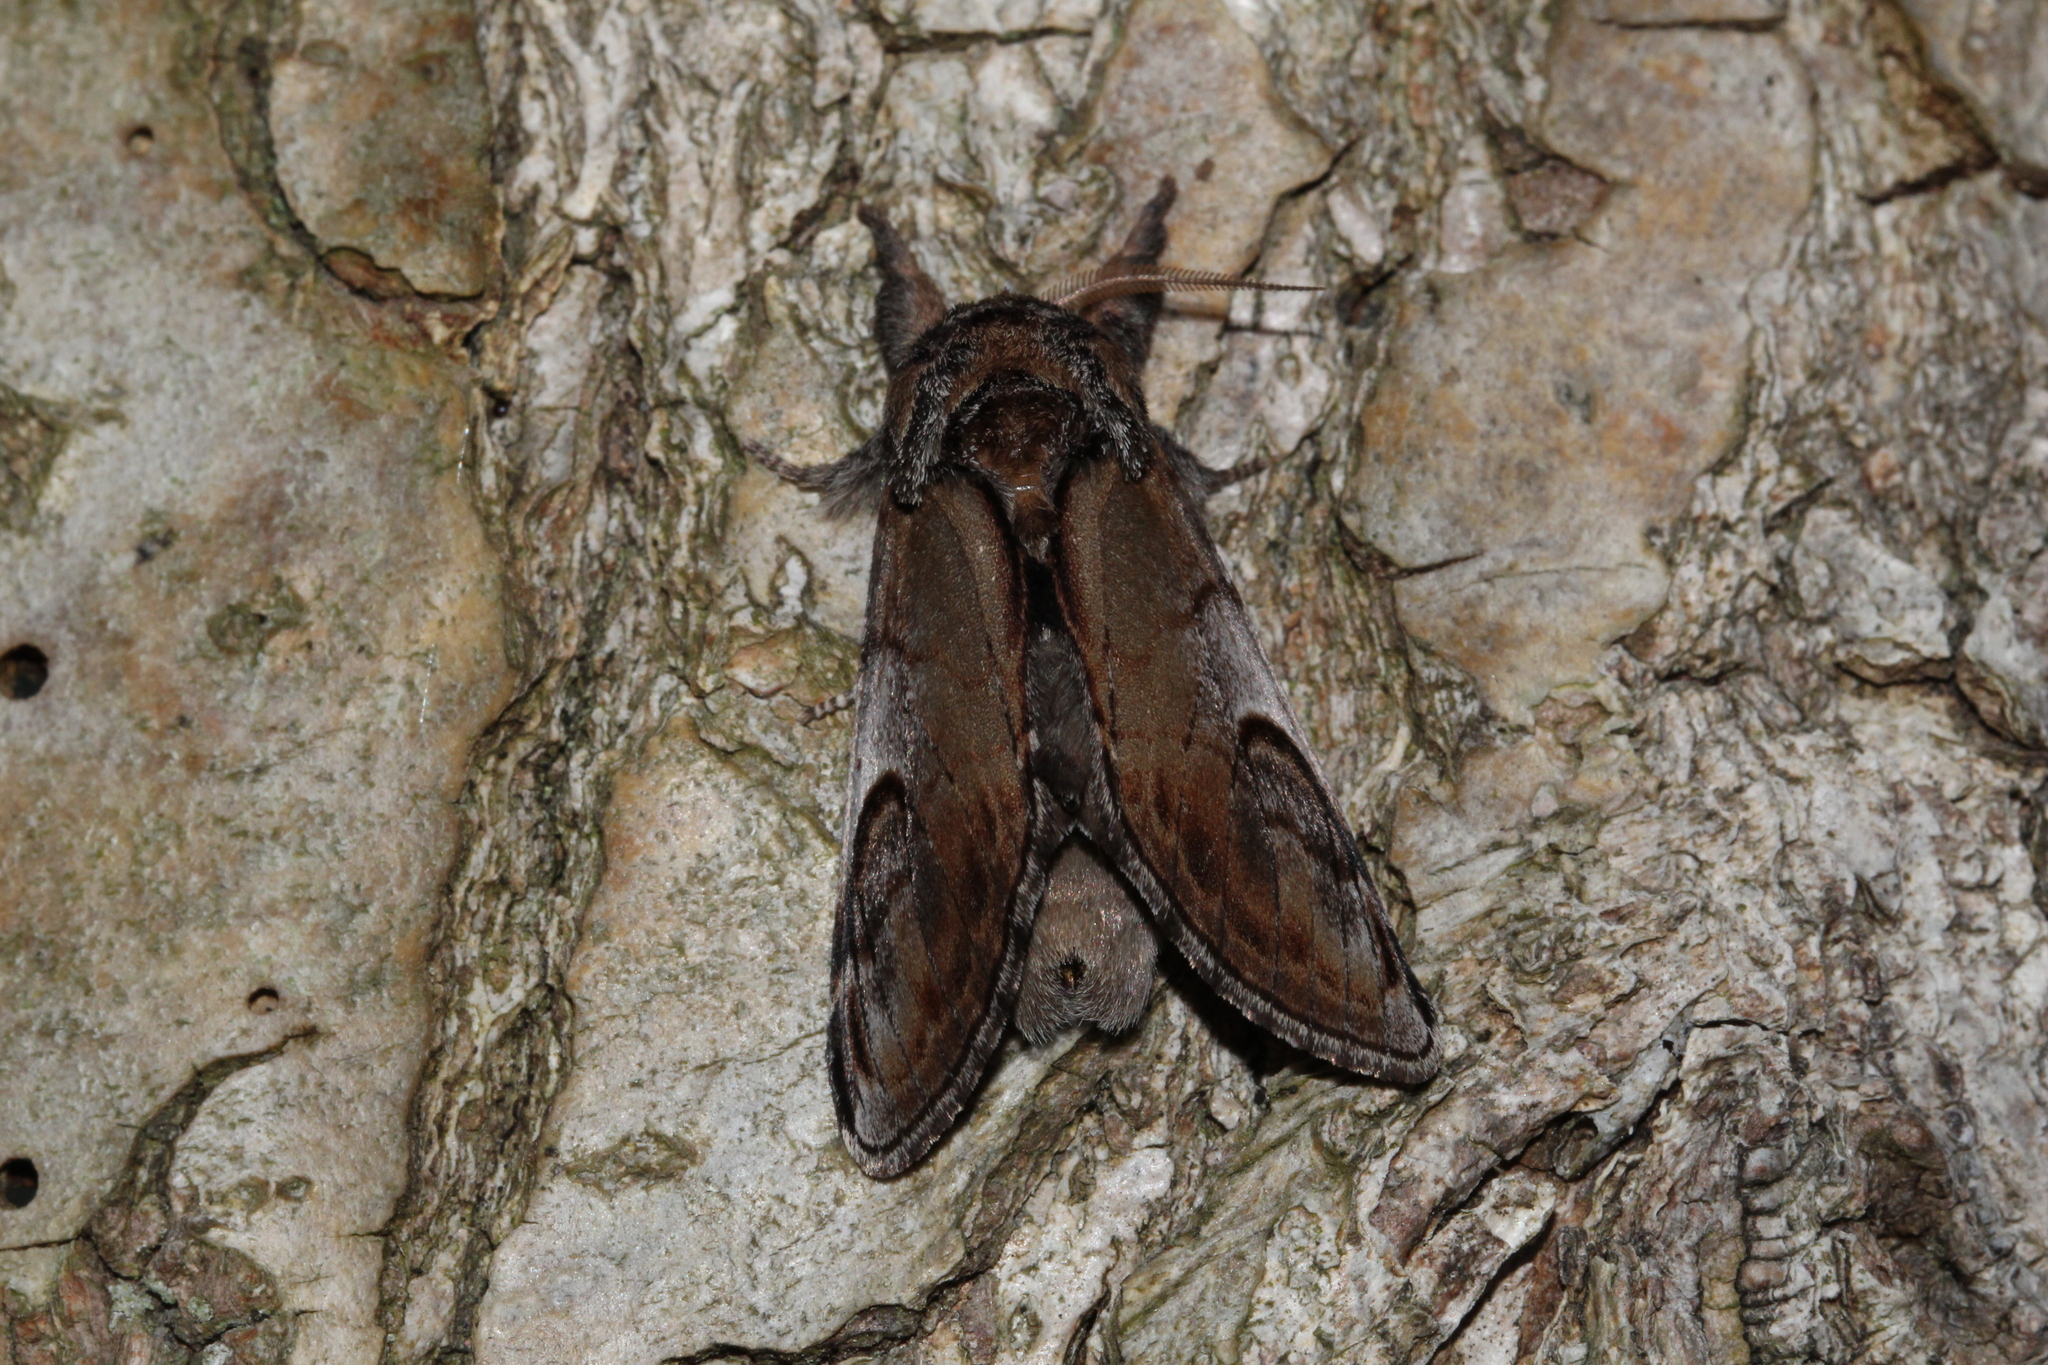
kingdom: Animalia
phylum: Arthropoda
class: Insecta
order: Lepidoptera
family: Notodontidae
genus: Notodonta
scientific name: Notodonta ziczac
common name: Pebble prominent
